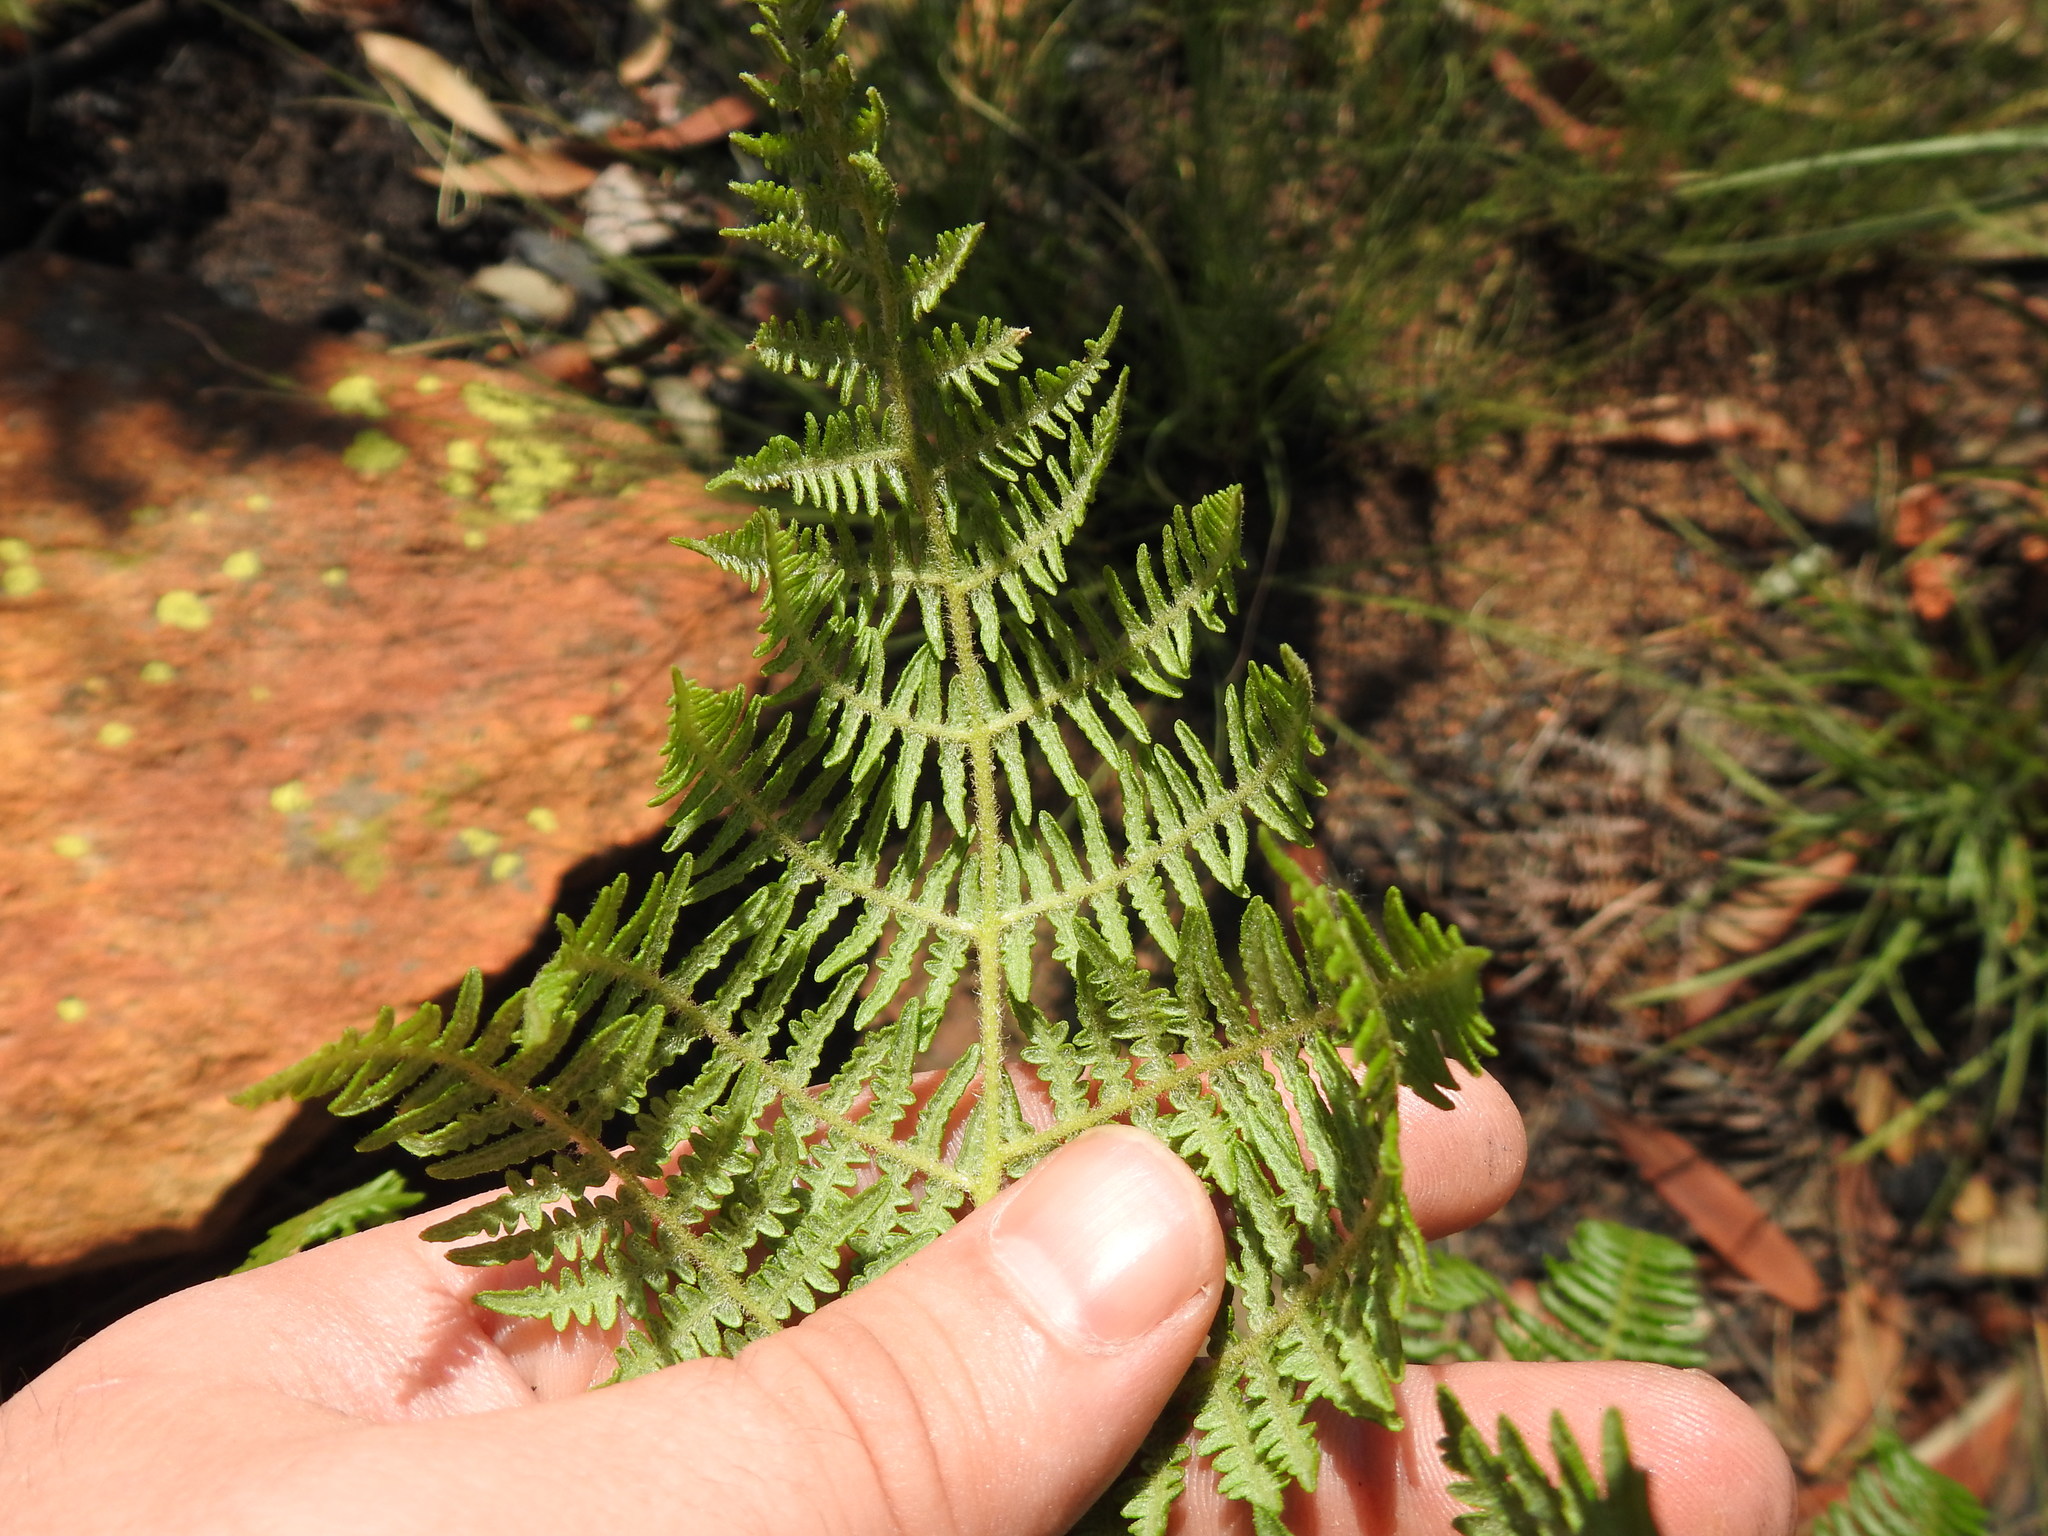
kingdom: Plantae
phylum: Tracheophyta
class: Polypodiopsida
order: Polypodiales
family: Dennstaedtiaceae
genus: Pteridium
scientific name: Pteridium aquilinum
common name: Bracken
